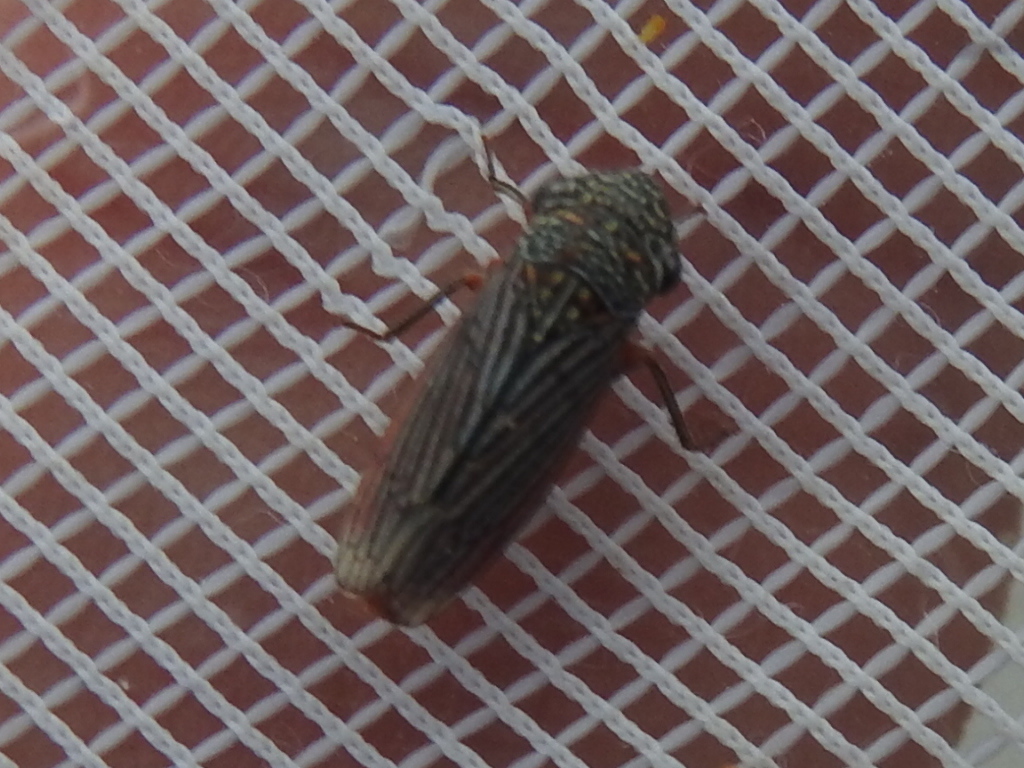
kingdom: Animalia
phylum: Arthropoda
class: Insecta
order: Hemiptera
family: Cicadellidae
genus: Cuerna
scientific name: Cuerna costalis
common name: Lateral-lined sharpshooter
